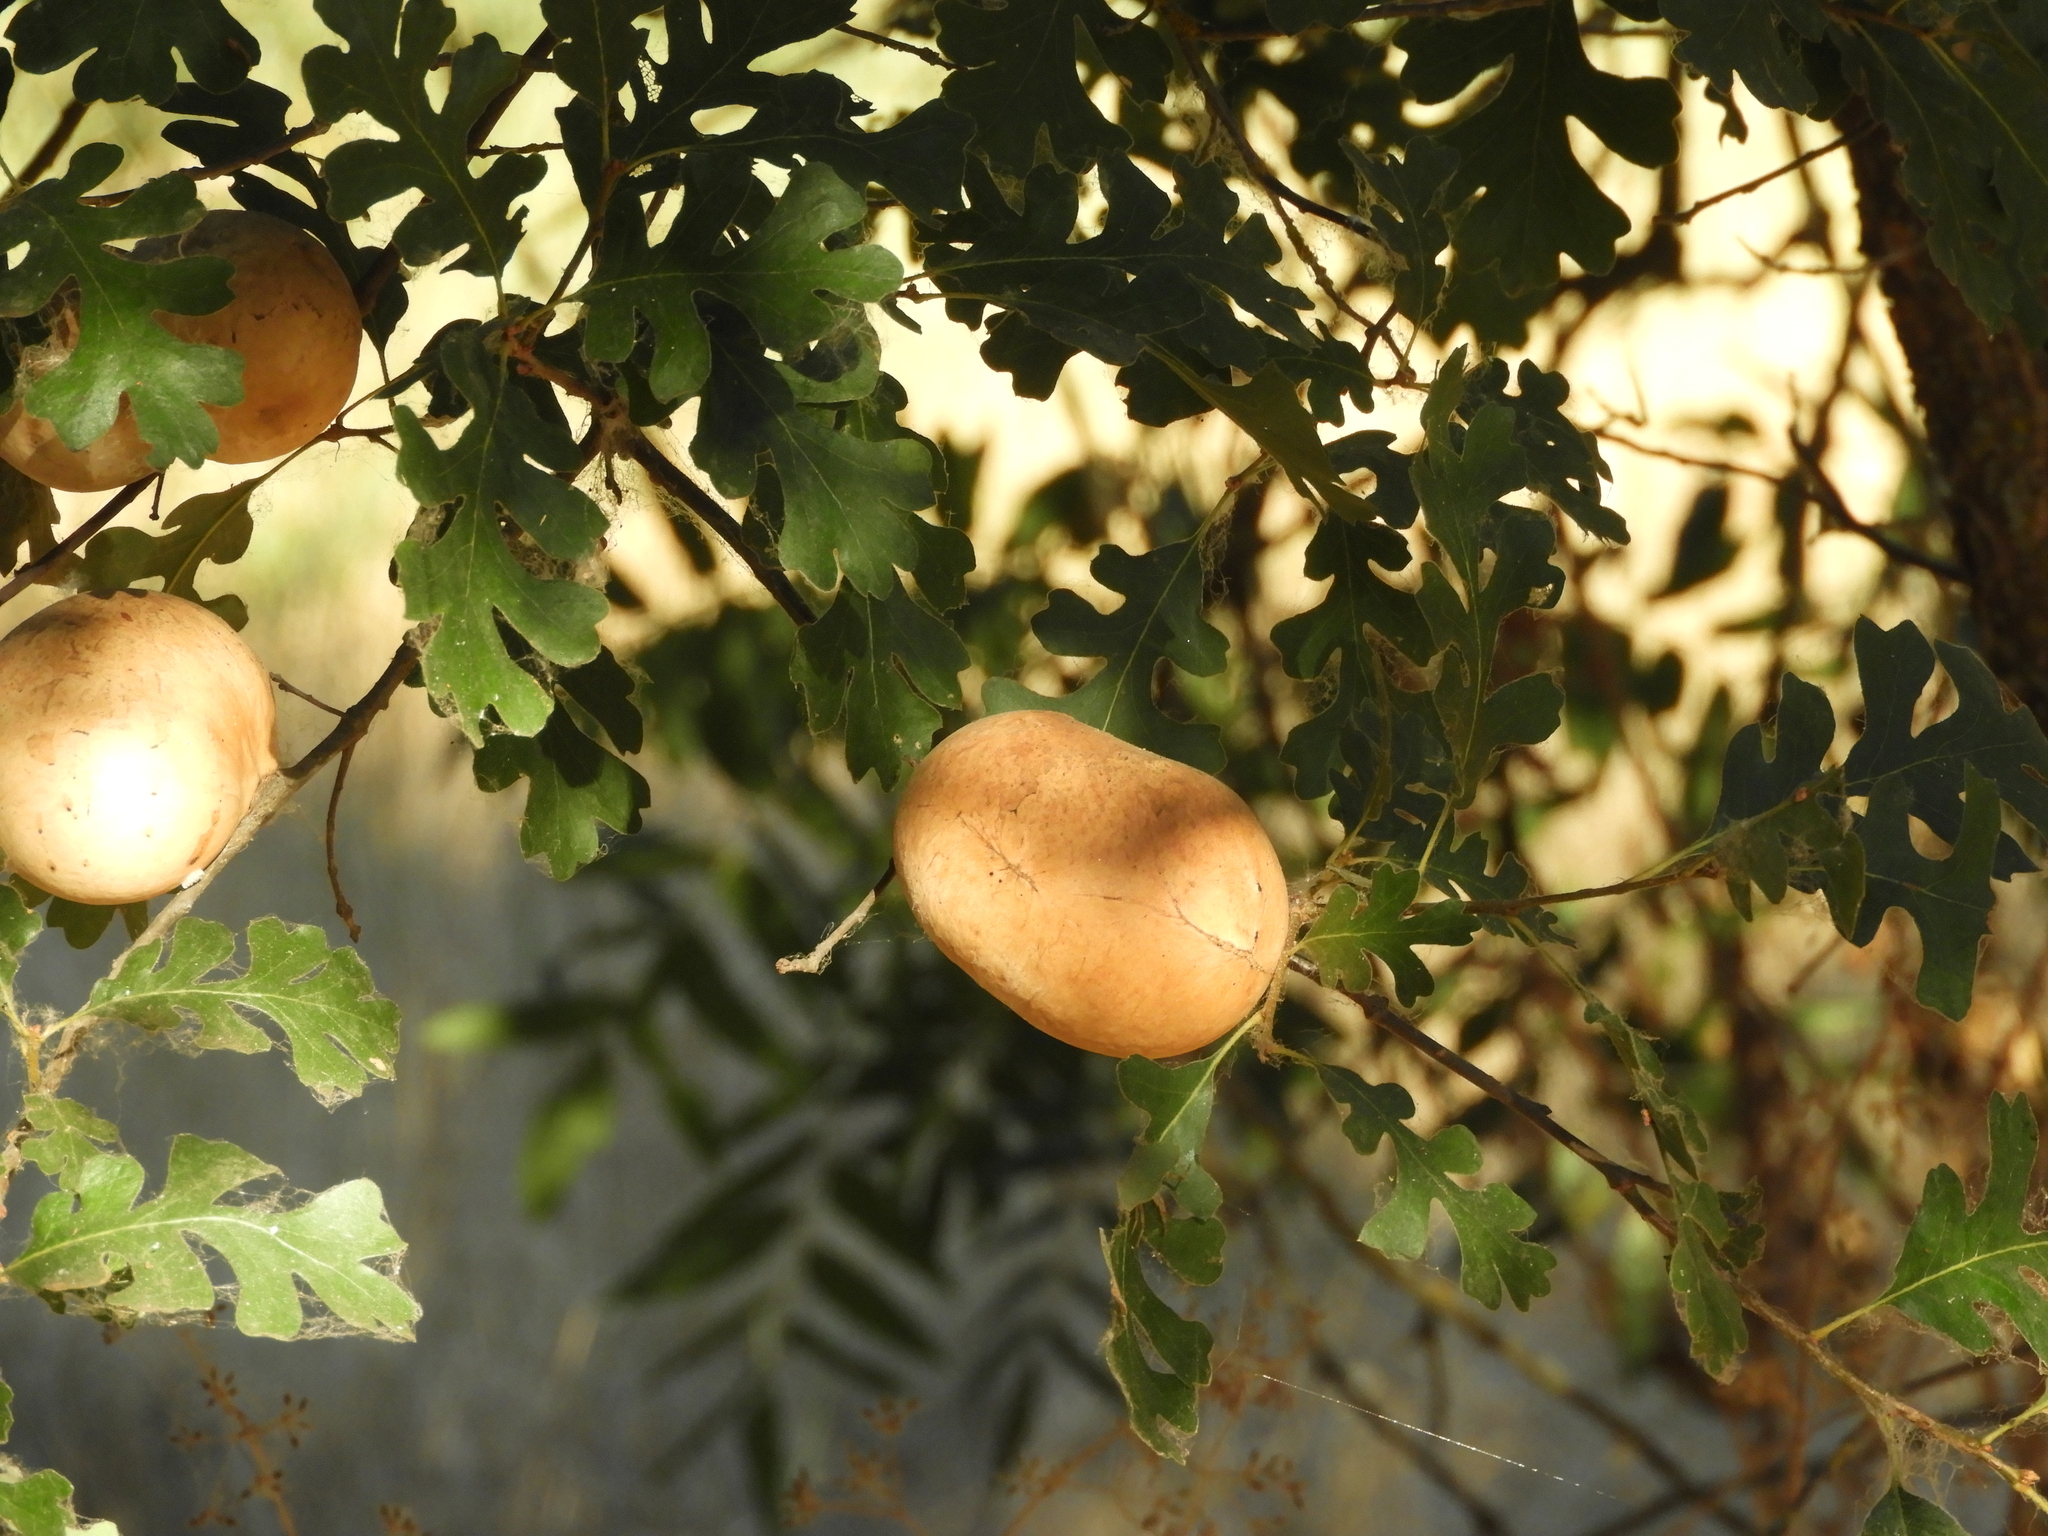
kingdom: Animalia
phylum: Arthropoda
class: Insecta
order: Hymenoptera
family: Cynipidae
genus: Andricus
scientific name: Andricus quercuscalifornicus
